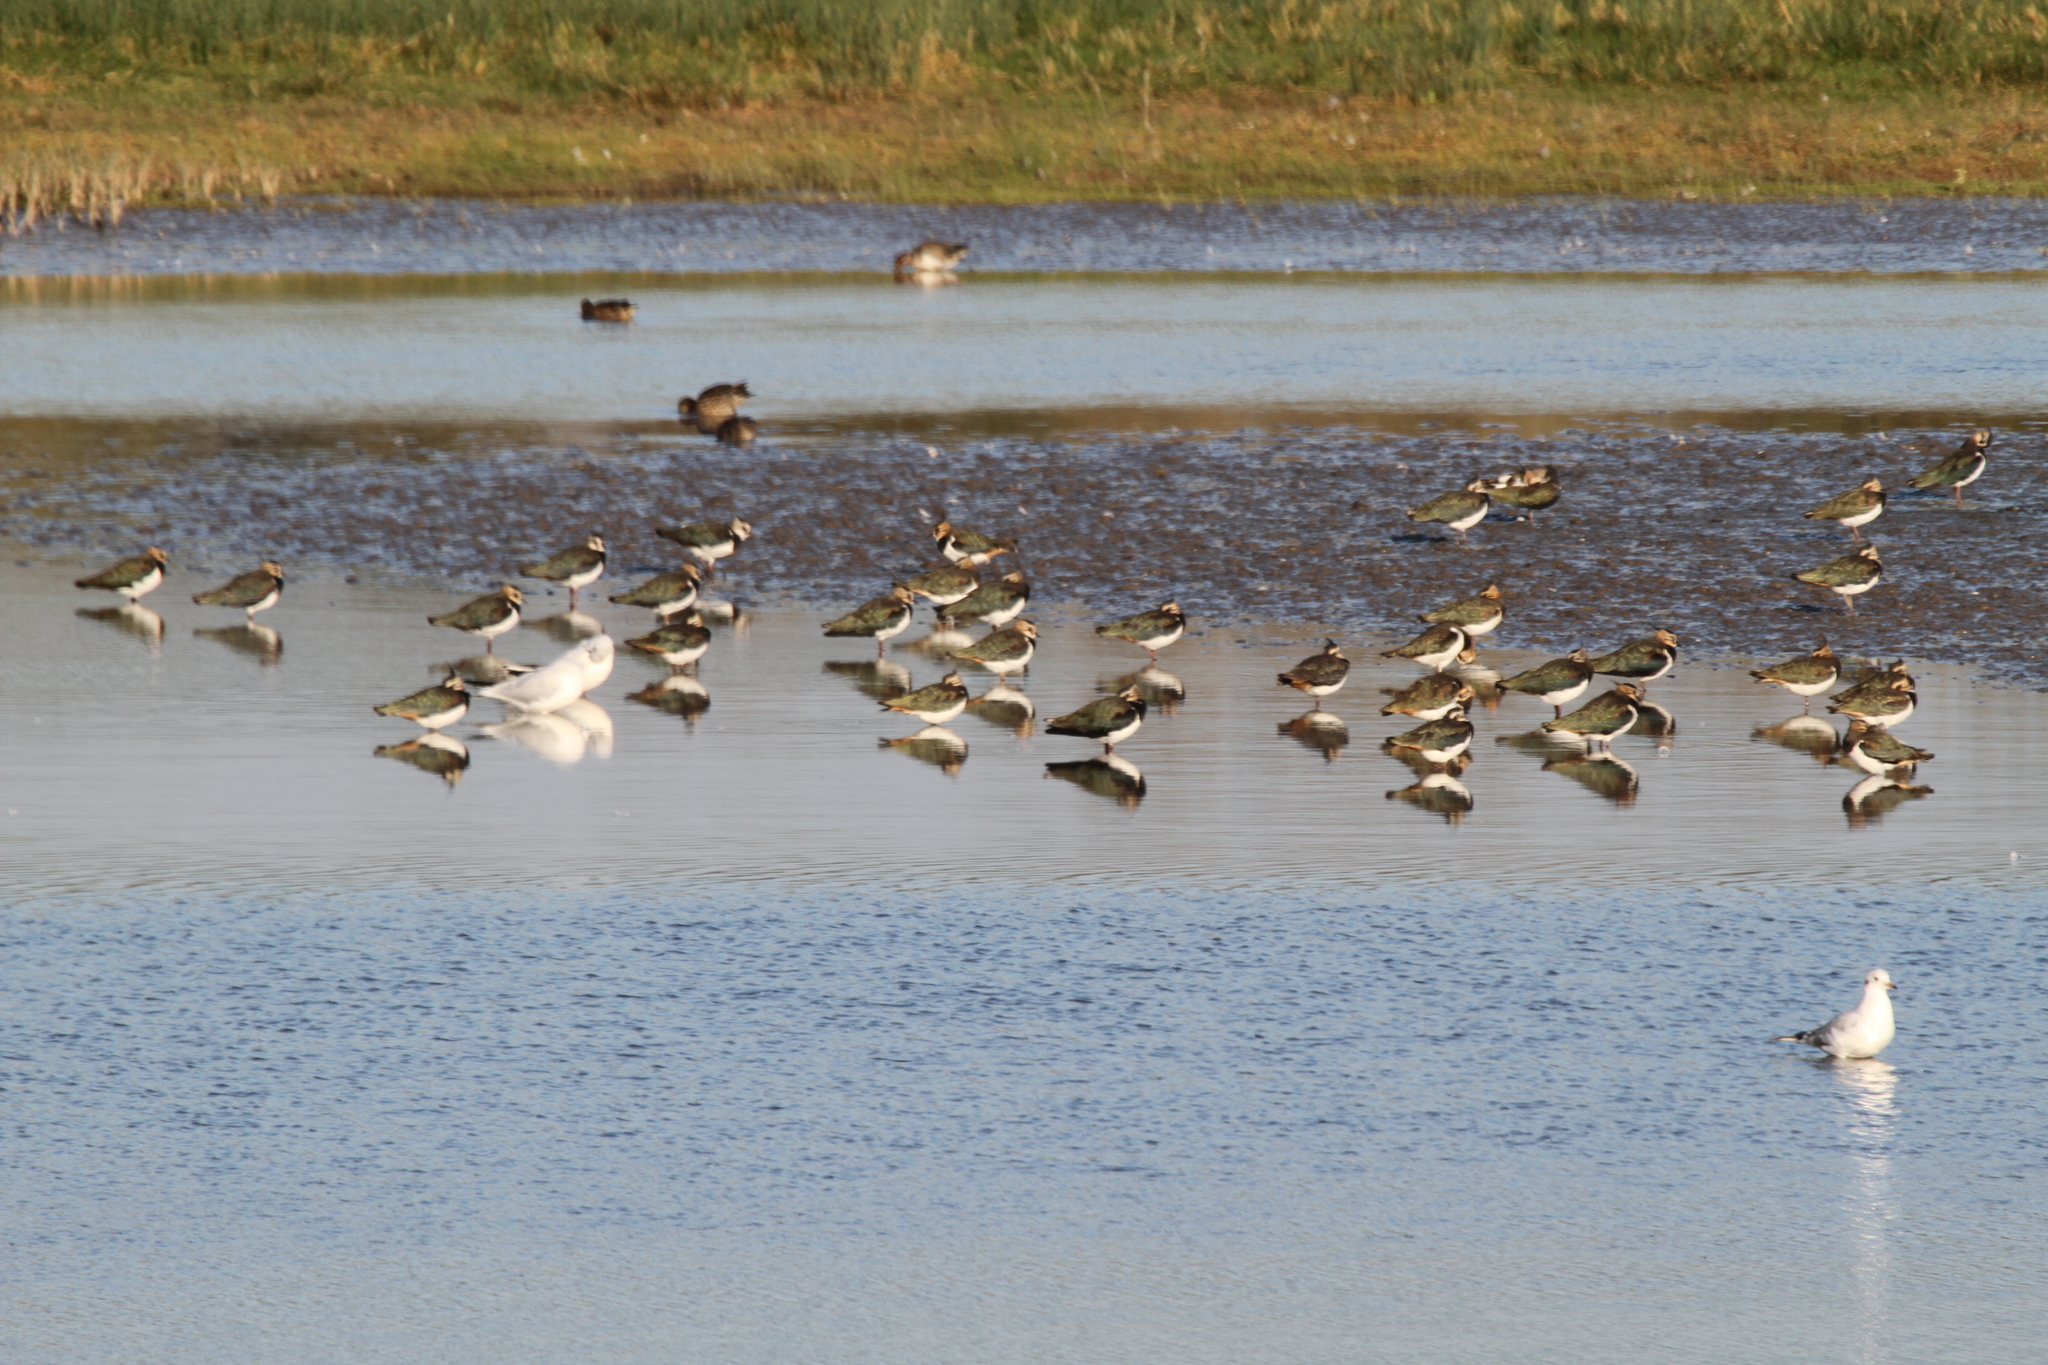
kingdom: Animalia
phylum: Chordata
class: Aves
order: Charadriiformes
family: Charadriidae
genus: Vanellus
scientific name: Vanellus vanellus
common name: Northern lapwing
